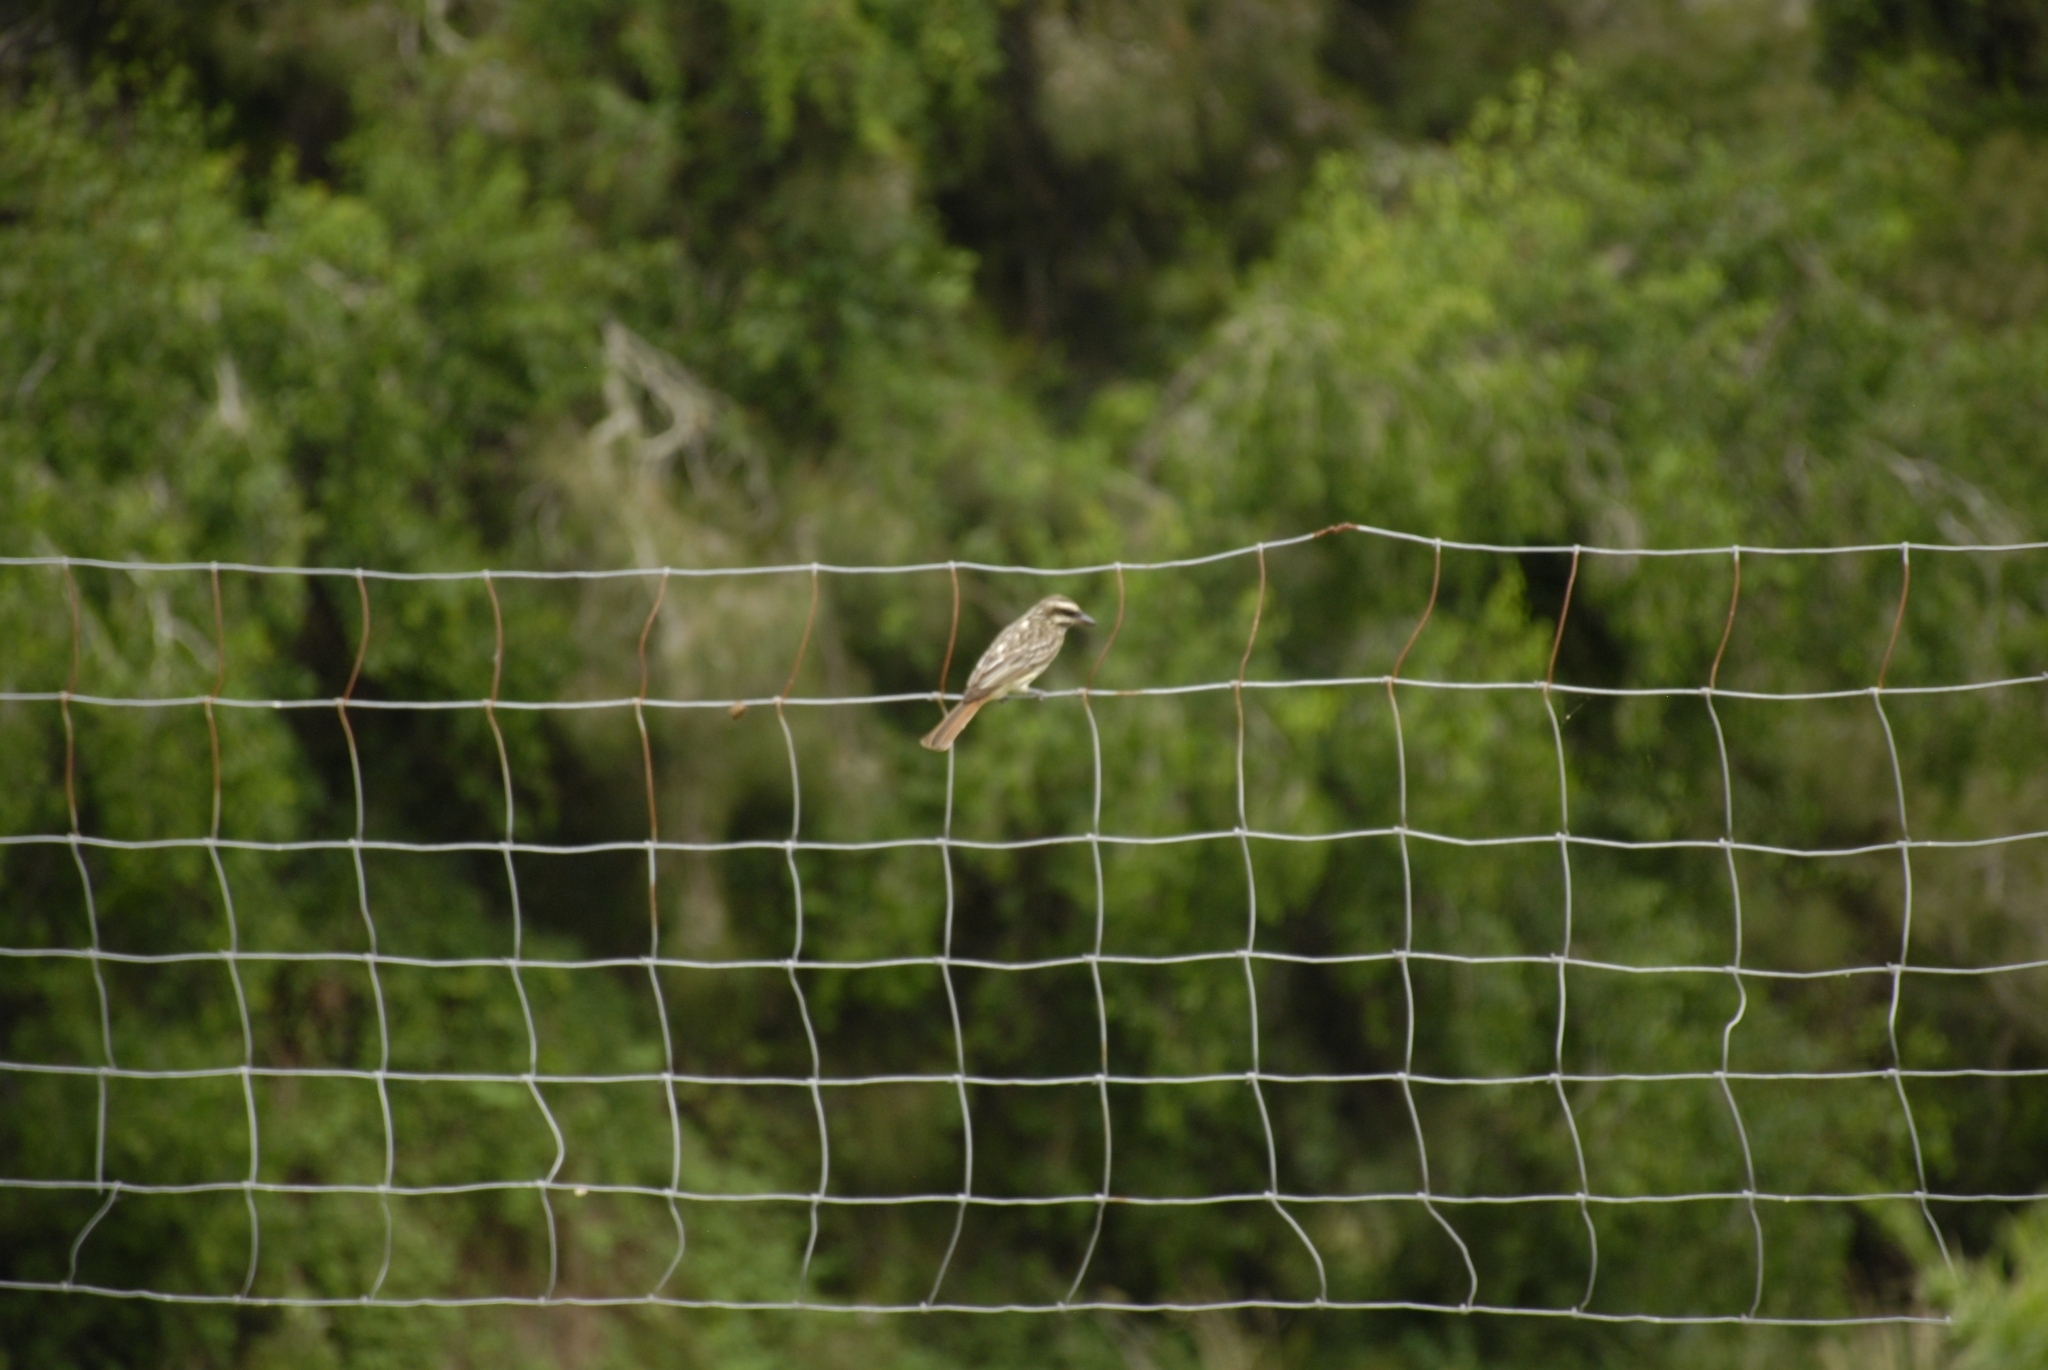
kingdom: Animalia
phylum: Chordata
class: Aves
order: Passeriformes
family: Tyrannidae
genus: Myiodynastes
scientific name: Myiodynastes maculatus
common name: Streaked flycatcher
